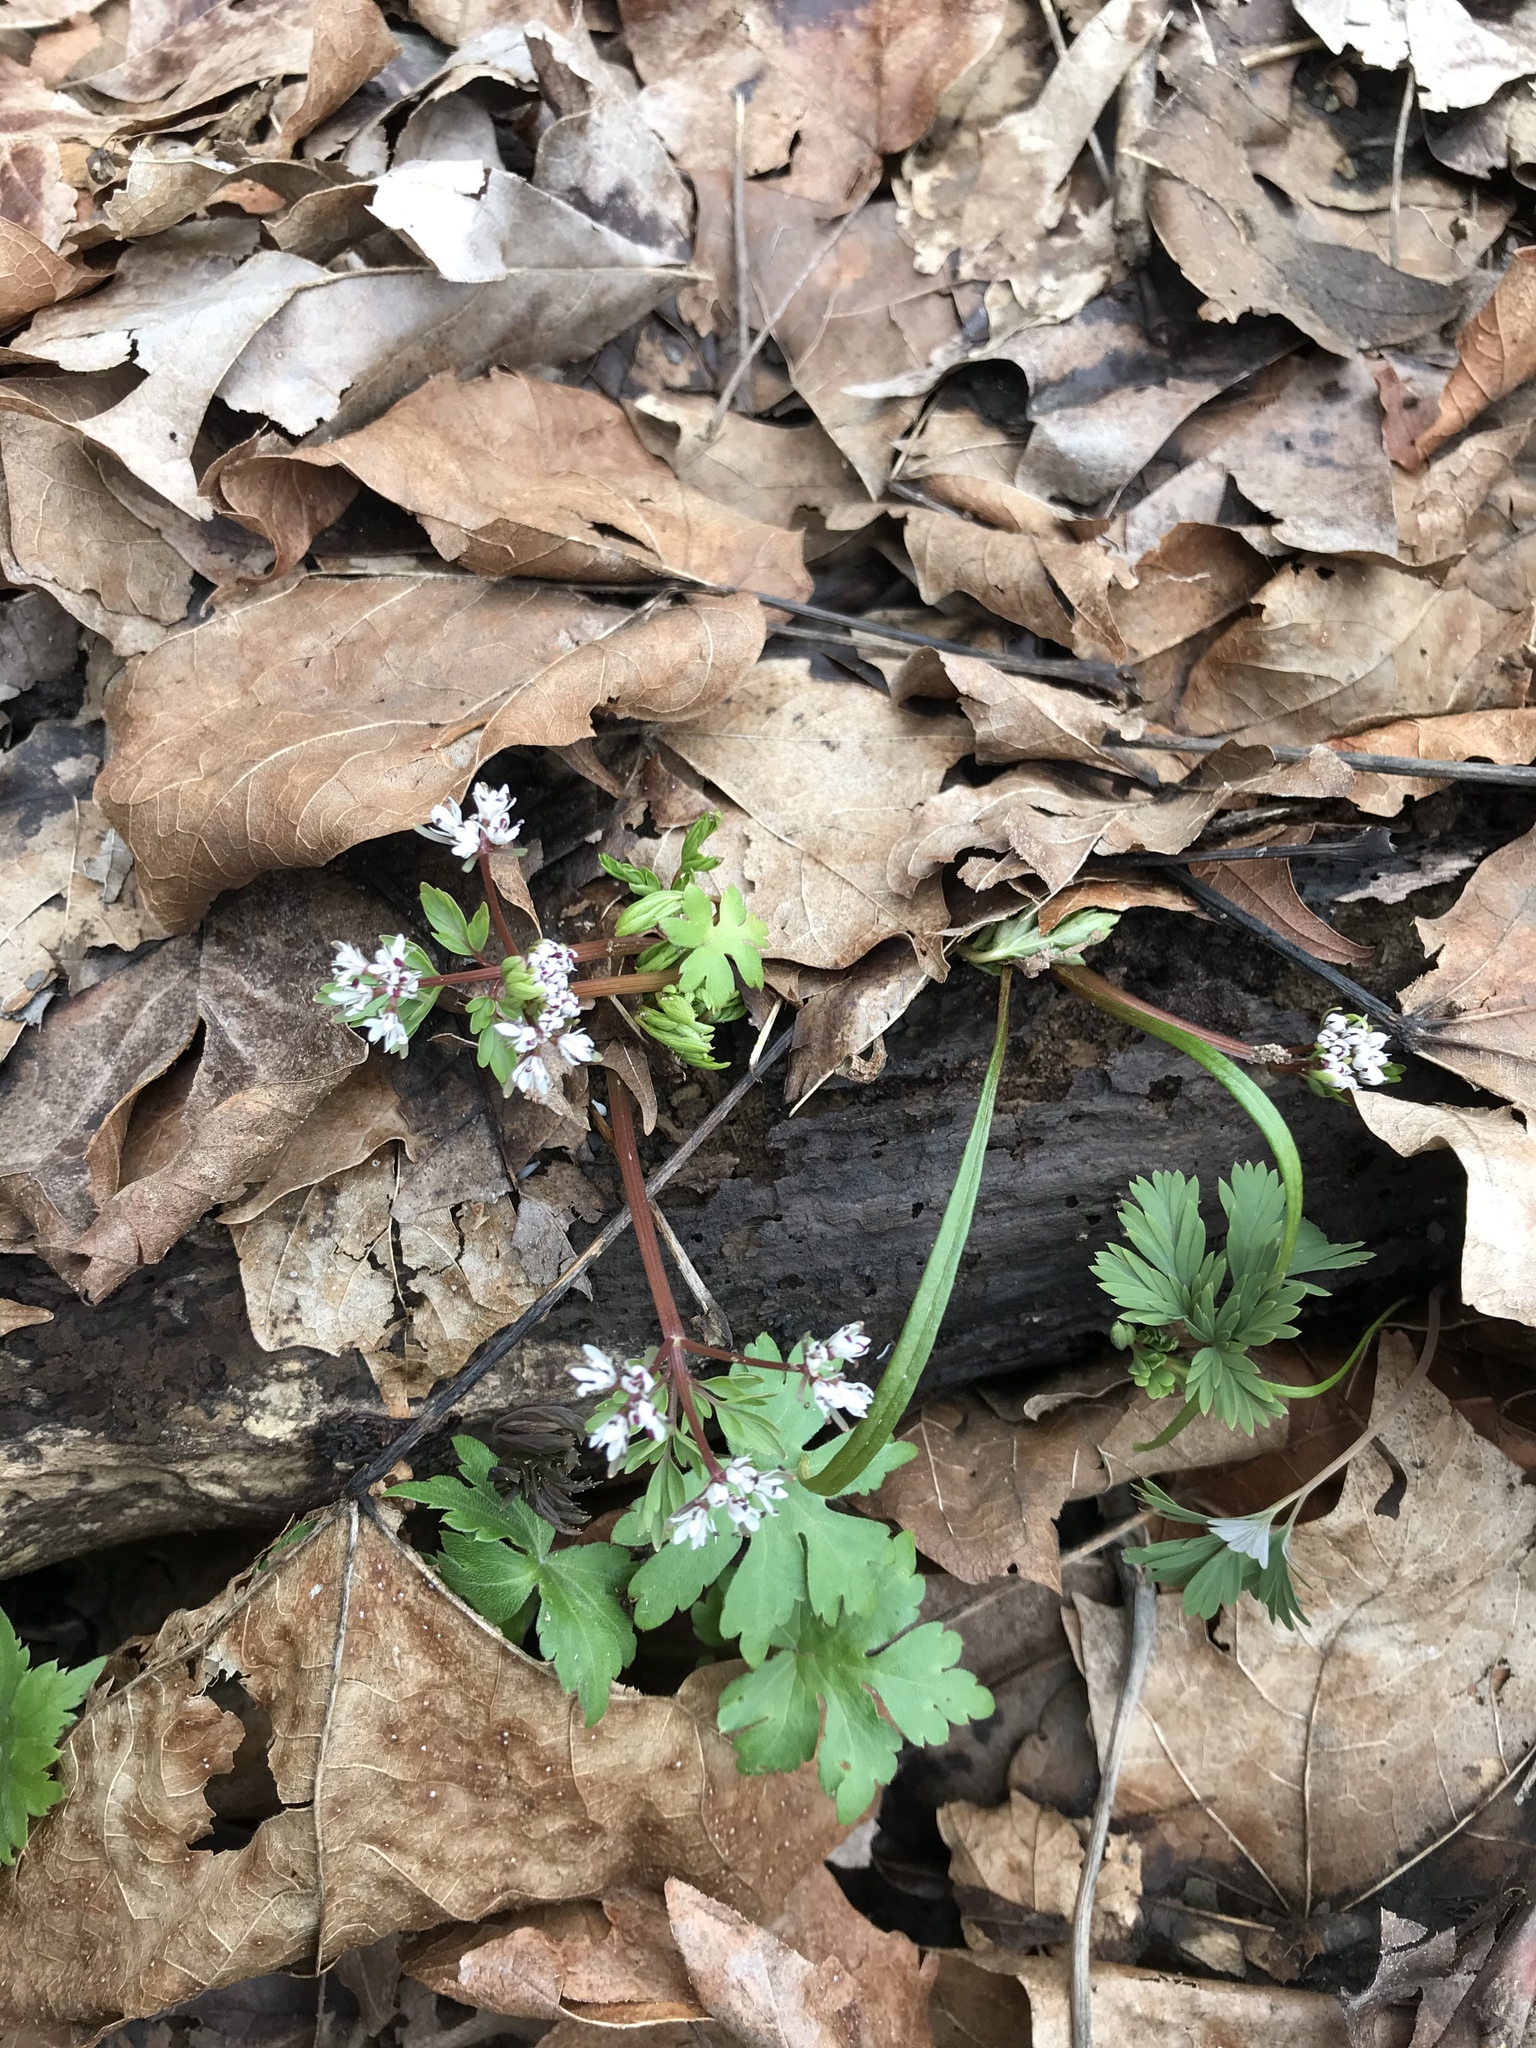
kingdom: Plantae
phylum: Tracheophyta
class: Magnoliopsida
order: Apiales
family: Apiaceae
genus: Erigenia
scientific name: Erigenia bulbosa
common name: Pepper-and-salt
